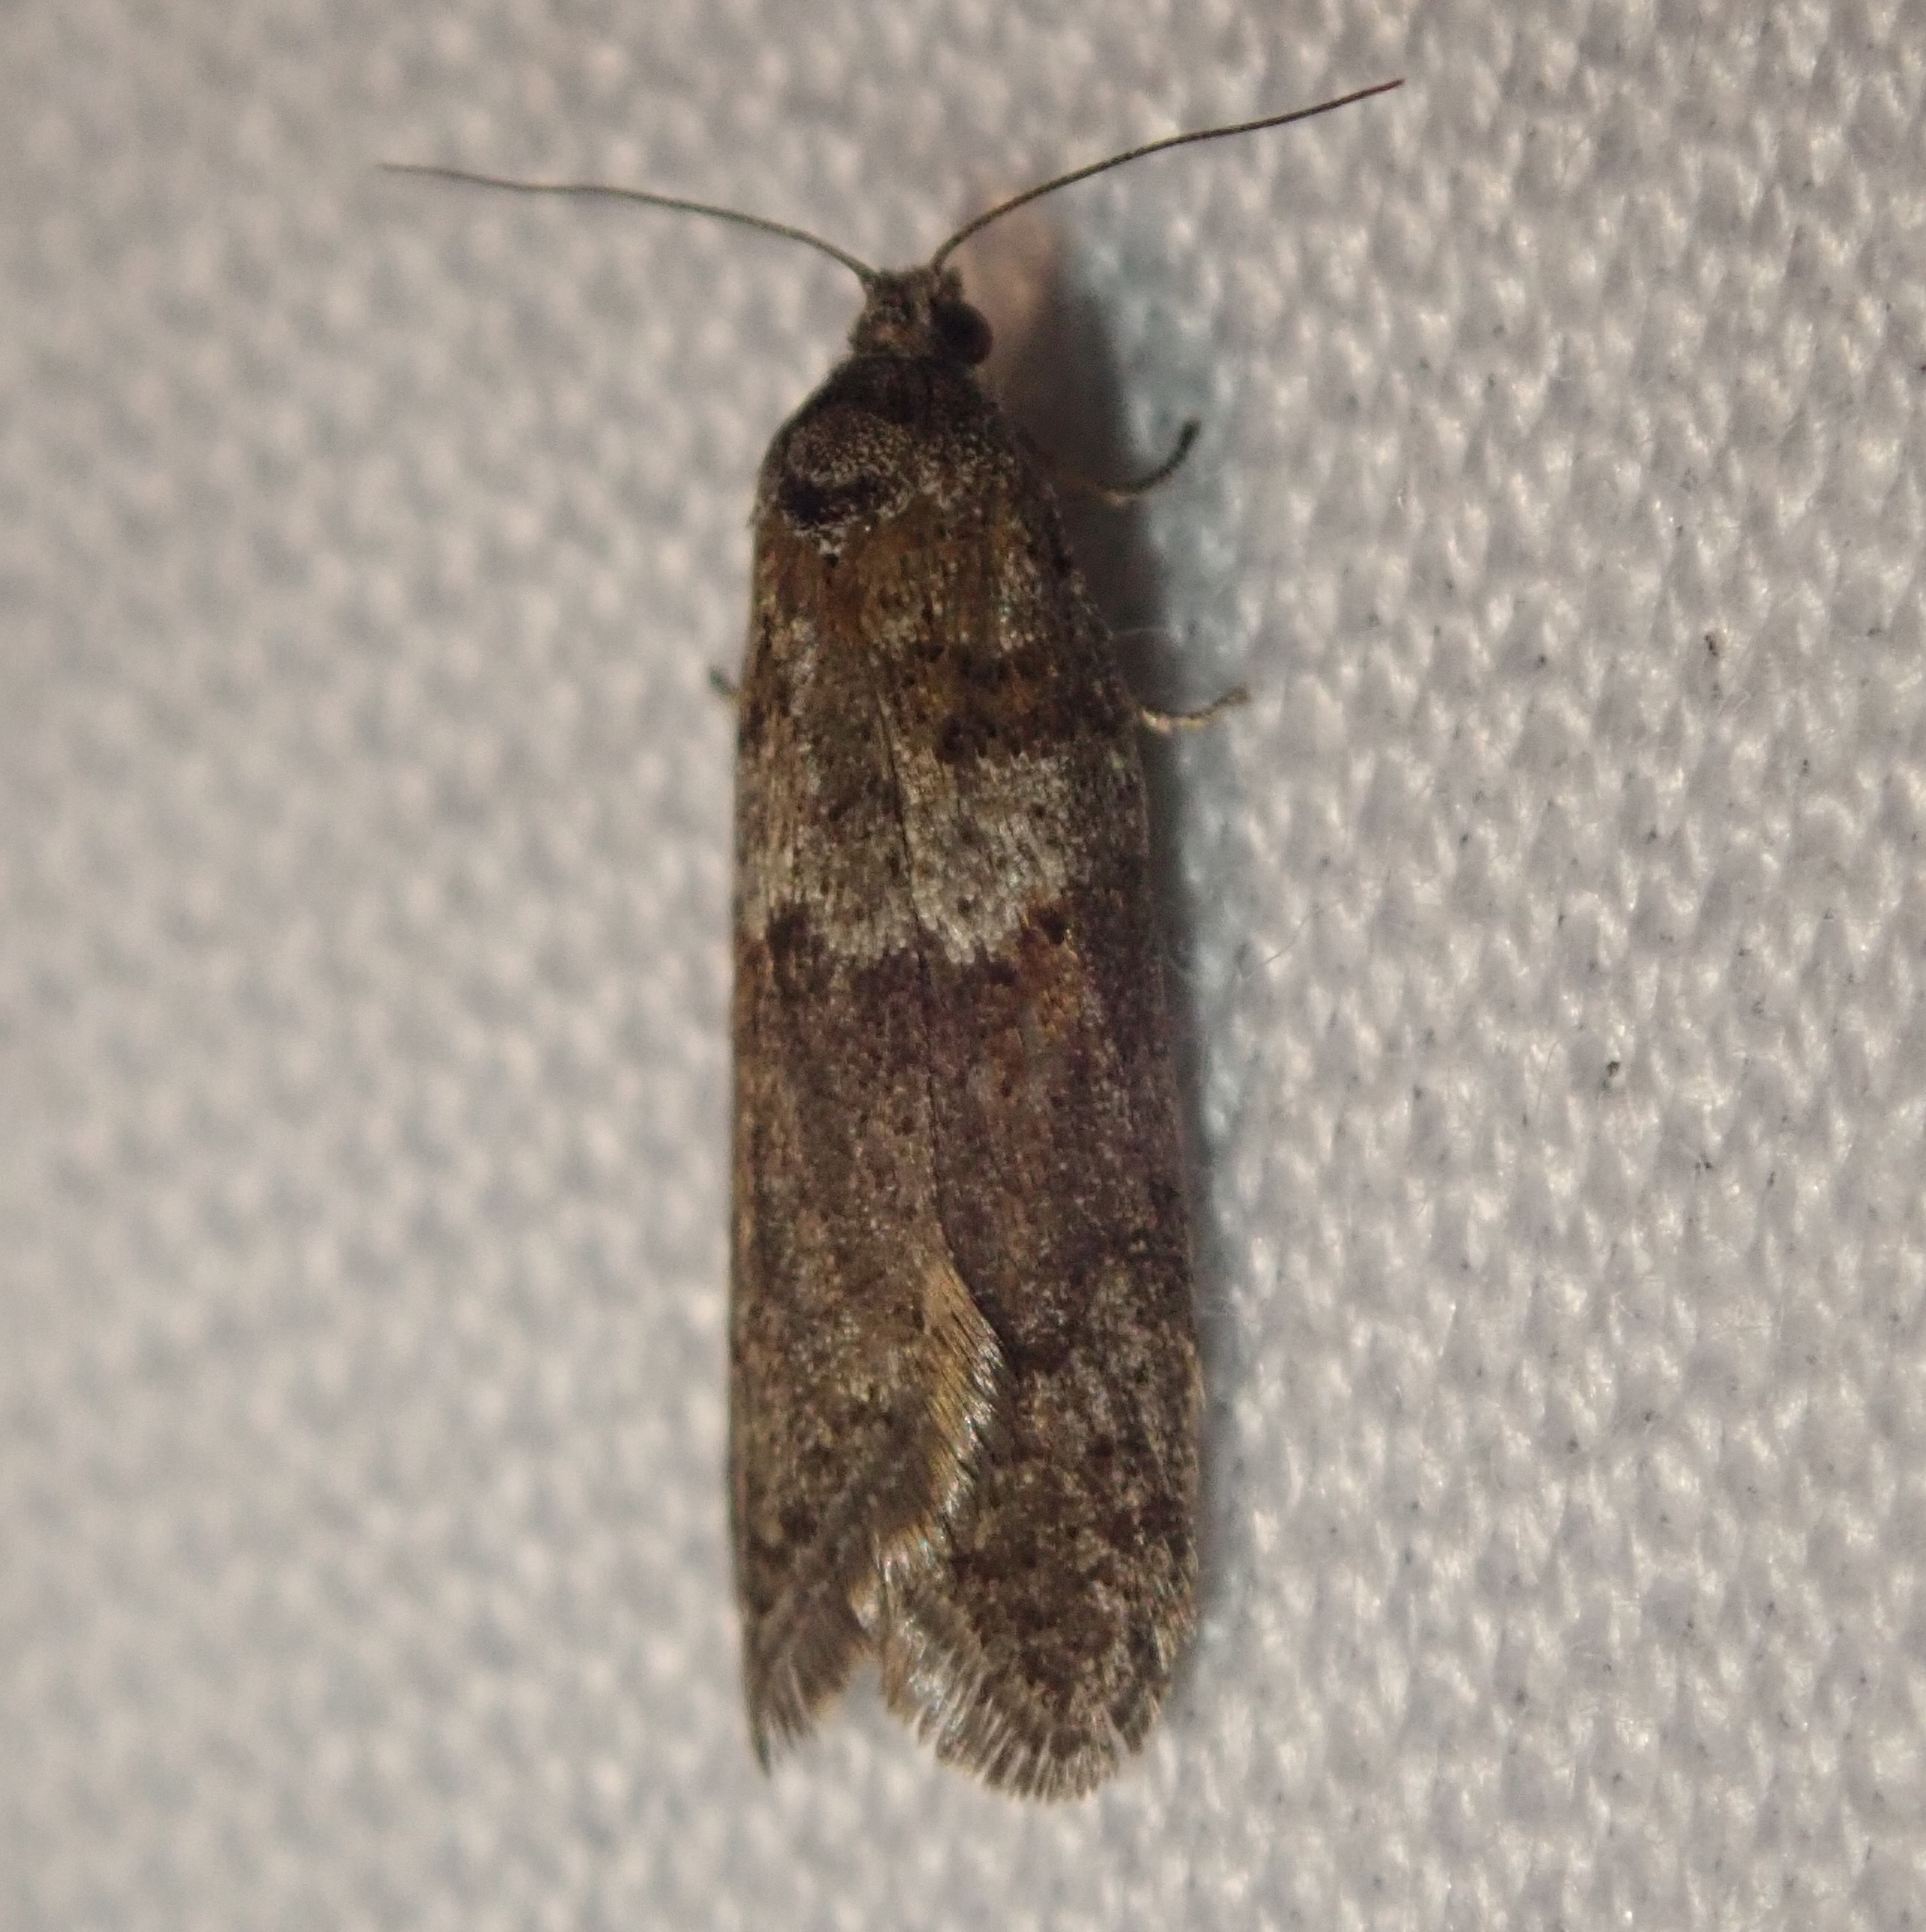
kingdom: Animalia
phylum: Arthropoda
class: Insecta
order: Lepidoptera
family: Tortricidae
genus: Tortricodes
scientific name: Tortricodes alternella
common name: Winter shade
